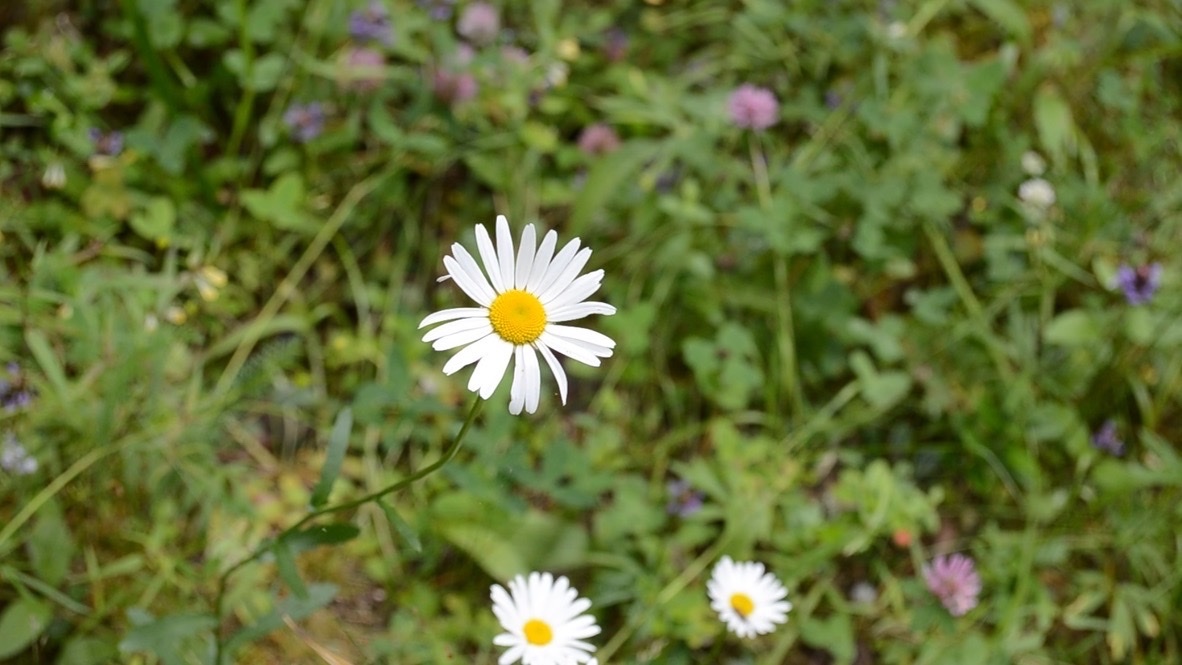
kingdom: Plantae
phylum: Tracheophyta
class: Magnoliopsida
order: Asterales
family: Asteraceae
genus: Leucanthemum
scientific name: Leucanthemum vulgare
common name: Oxeye daisy
